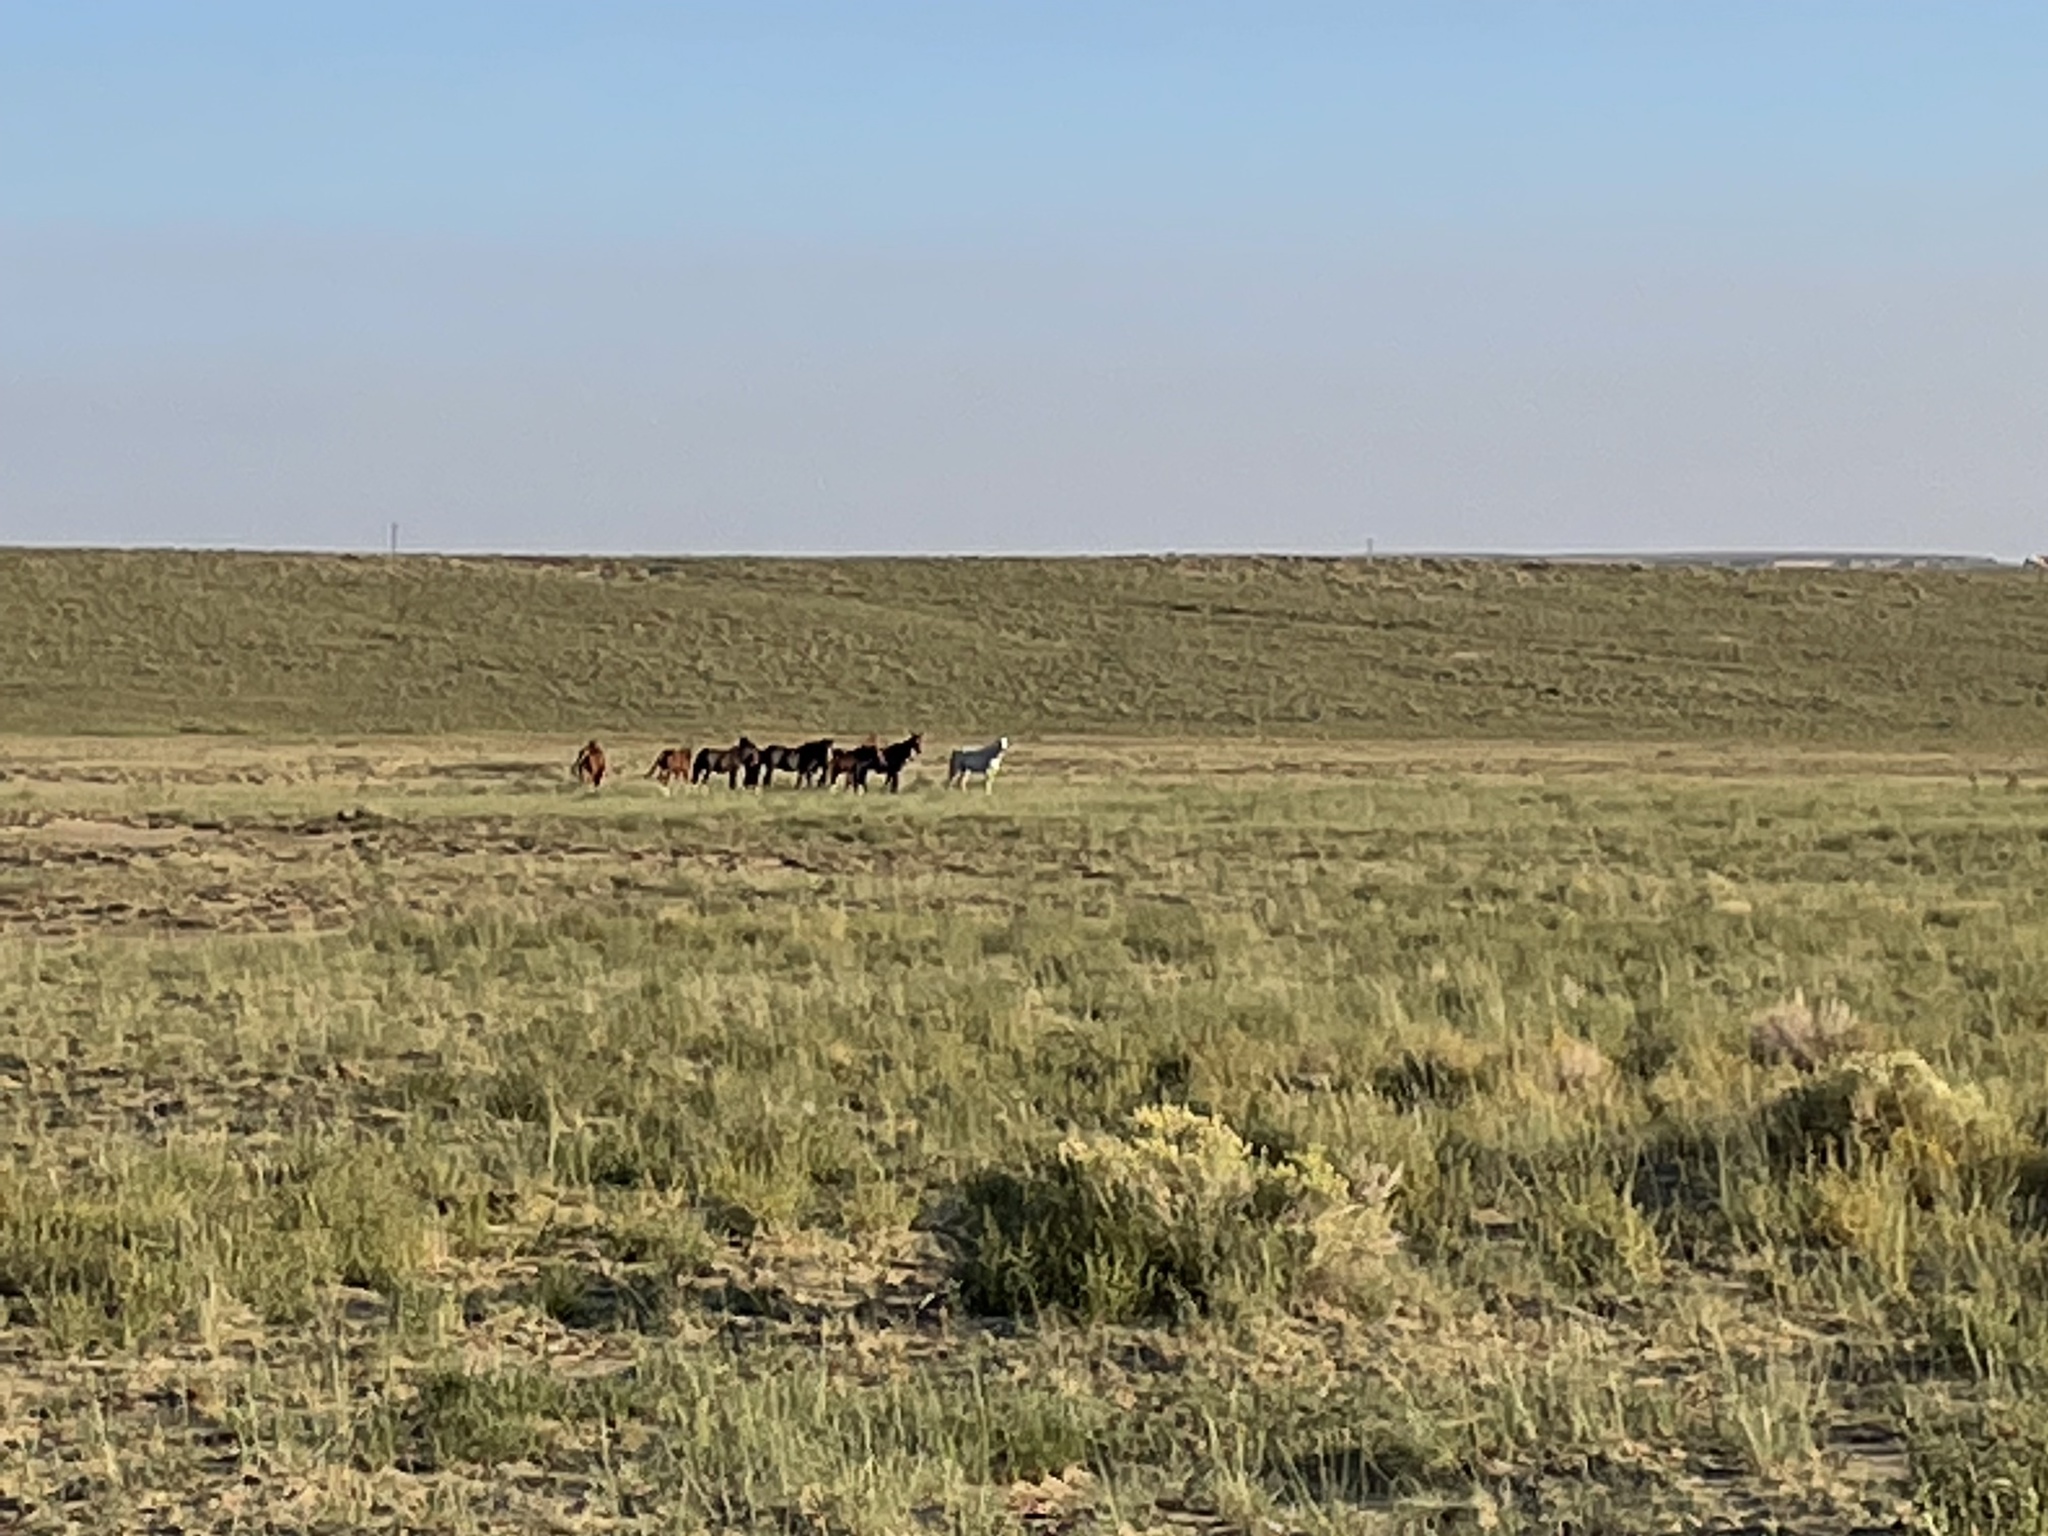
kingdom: Animalia
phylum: Chordata
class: Mammalia
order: Perissodactyla
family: Equidae
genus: Equus
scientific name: Equus caballus
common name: Horse
